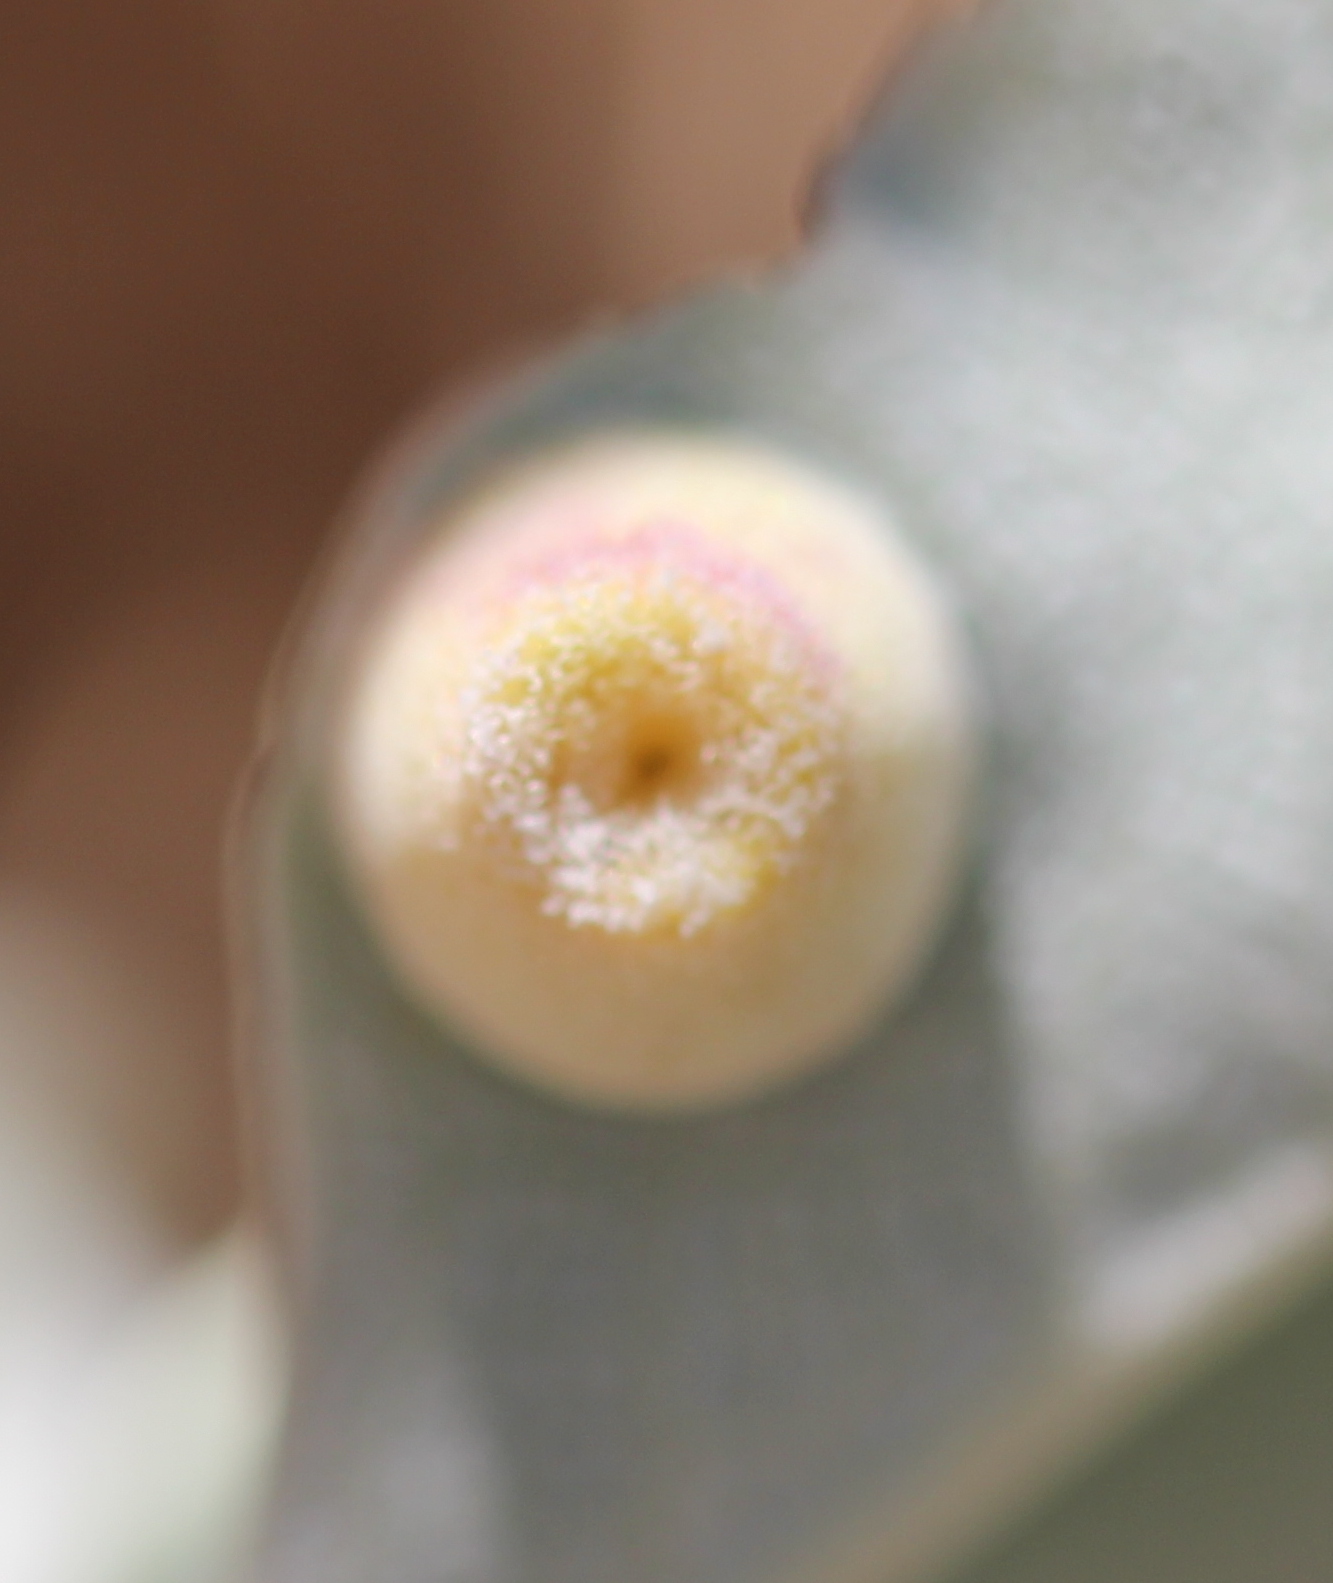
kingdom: Animalia
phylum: Arthropoda
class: Insecta
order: Diptera
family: Cecidomyiidae
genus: Rhopalomyia
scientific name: Rhopalomyia audibertiae
